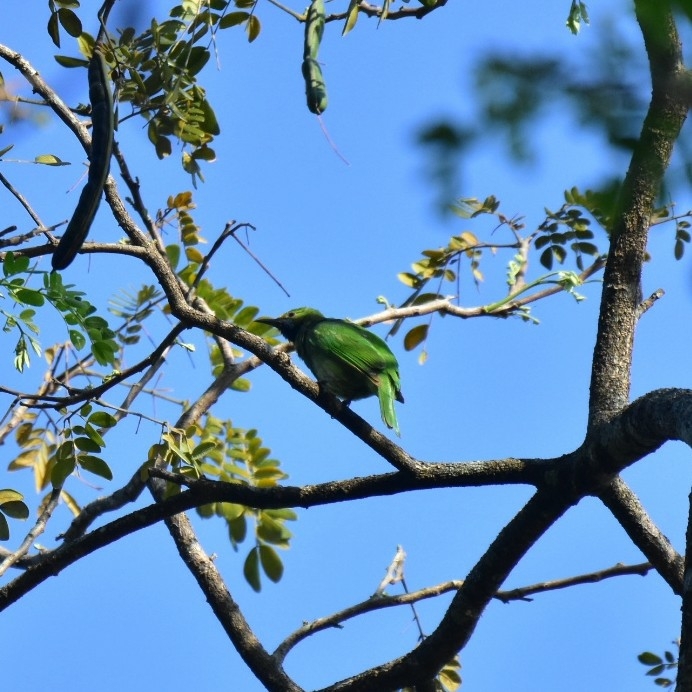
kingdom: Animalia
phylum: Chordata
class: Aves
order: Passeriformes
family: Chloropseidae
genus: Chloropsis
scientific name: Chloropsis aurifrons
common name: Golden-fronted leafbird
